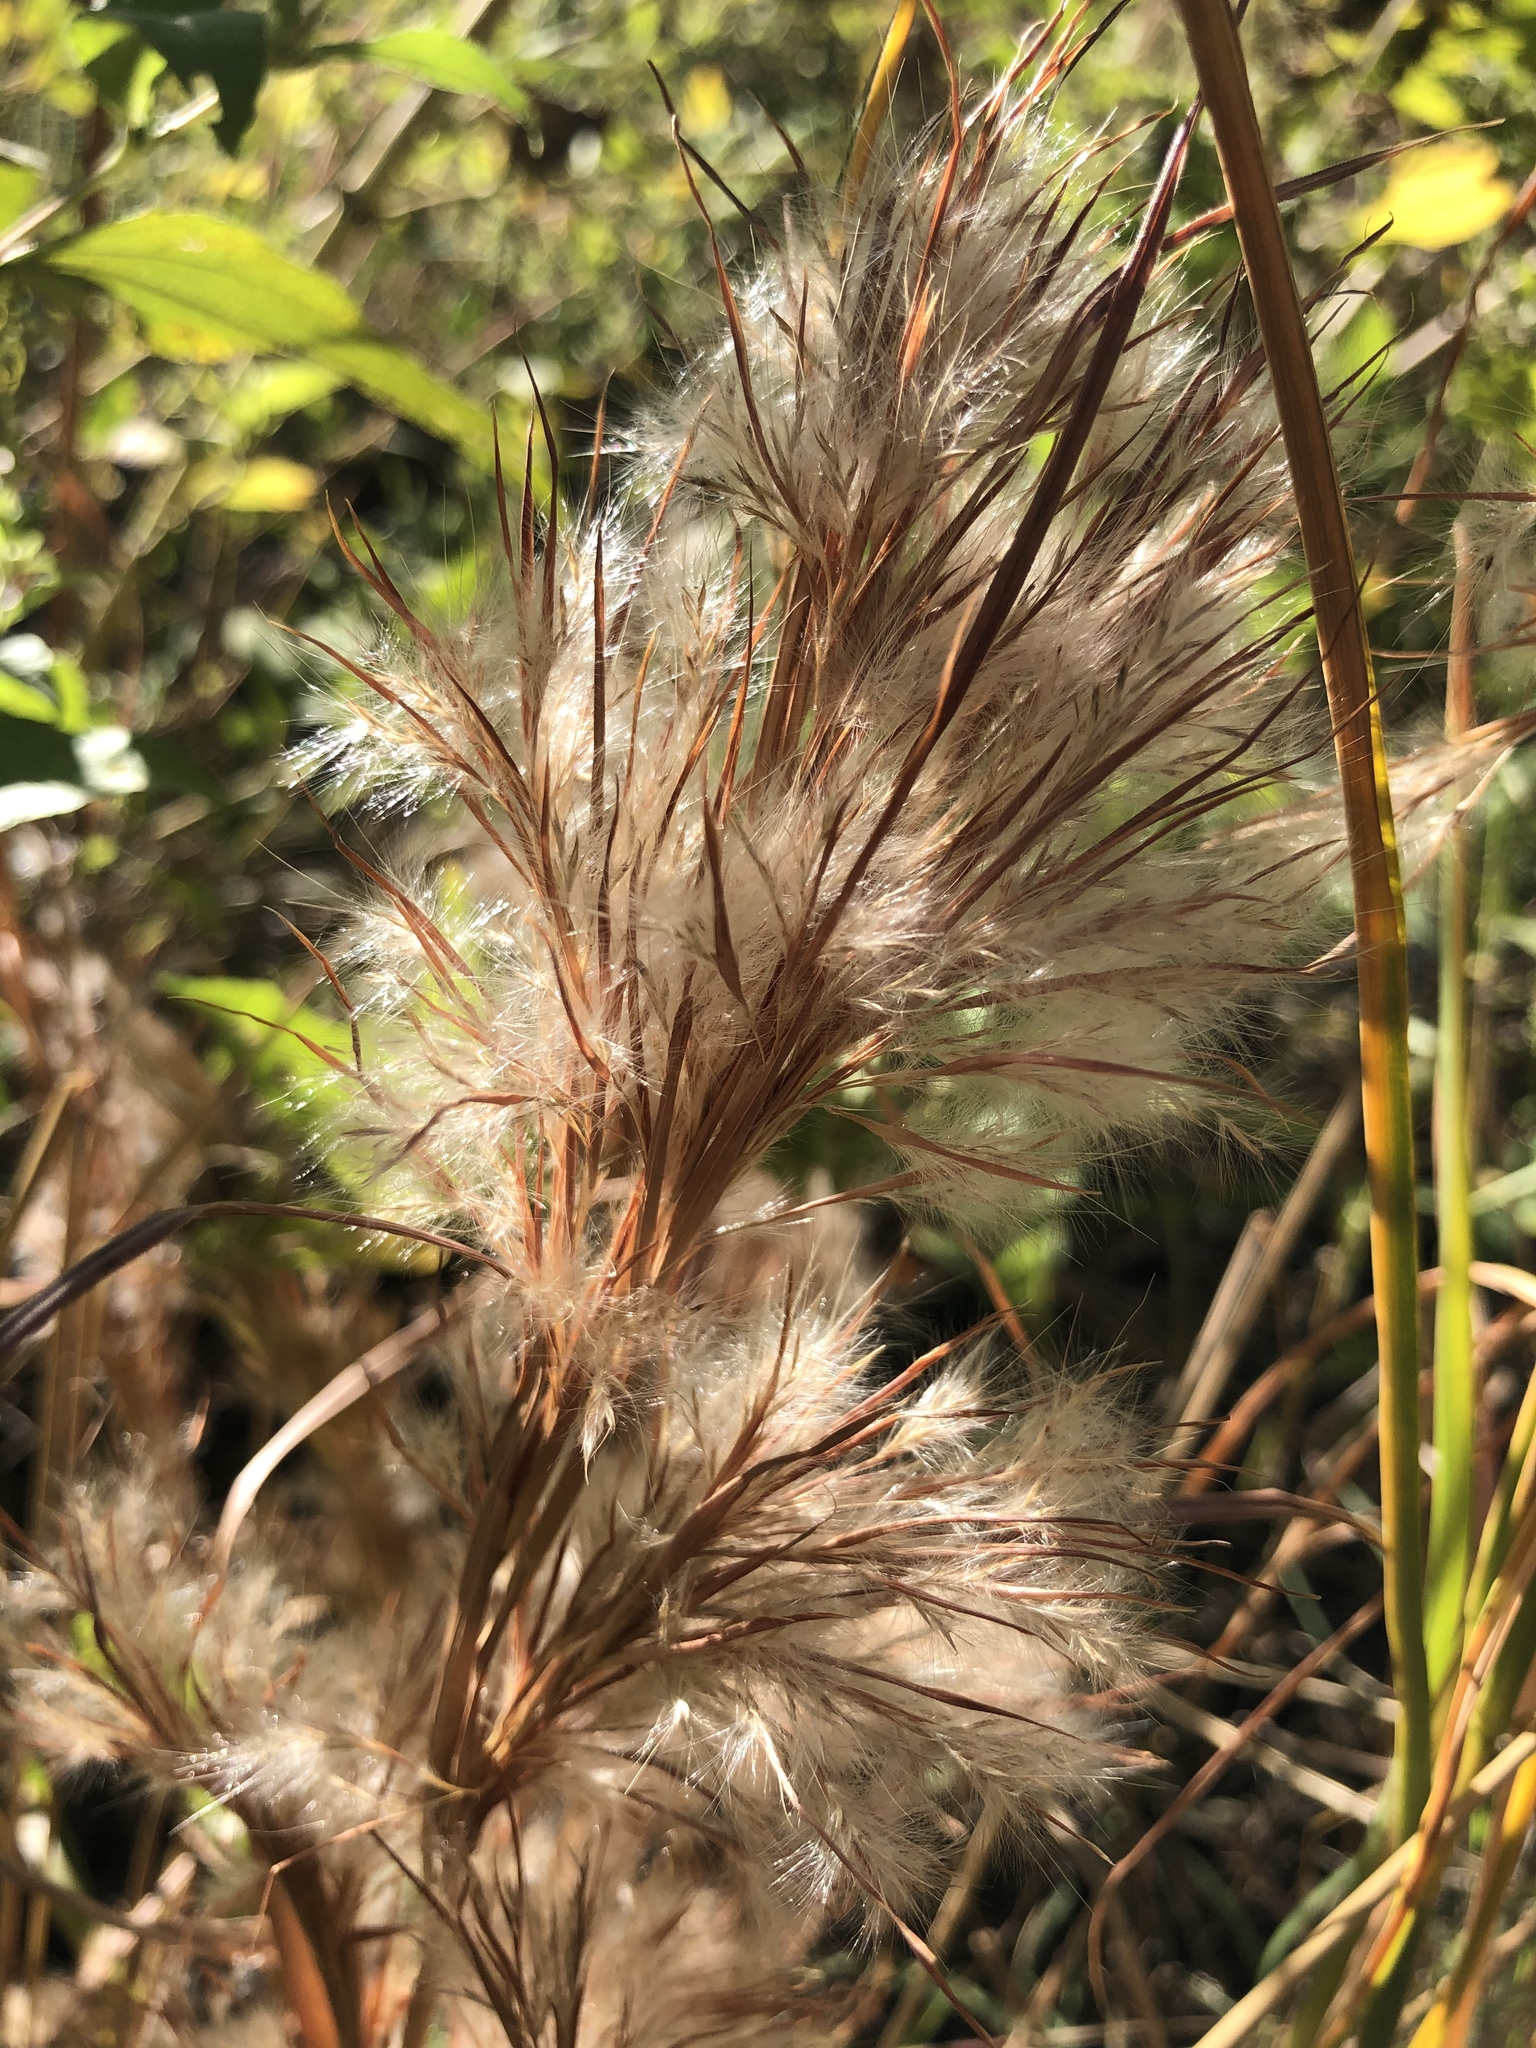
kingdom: Plantae
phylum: Tracheophyta
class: Liliopsida
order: Poales
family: Poaceae
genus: Andropogon
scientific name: Andropogon tenuispatheus
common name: Bushy bluestem
